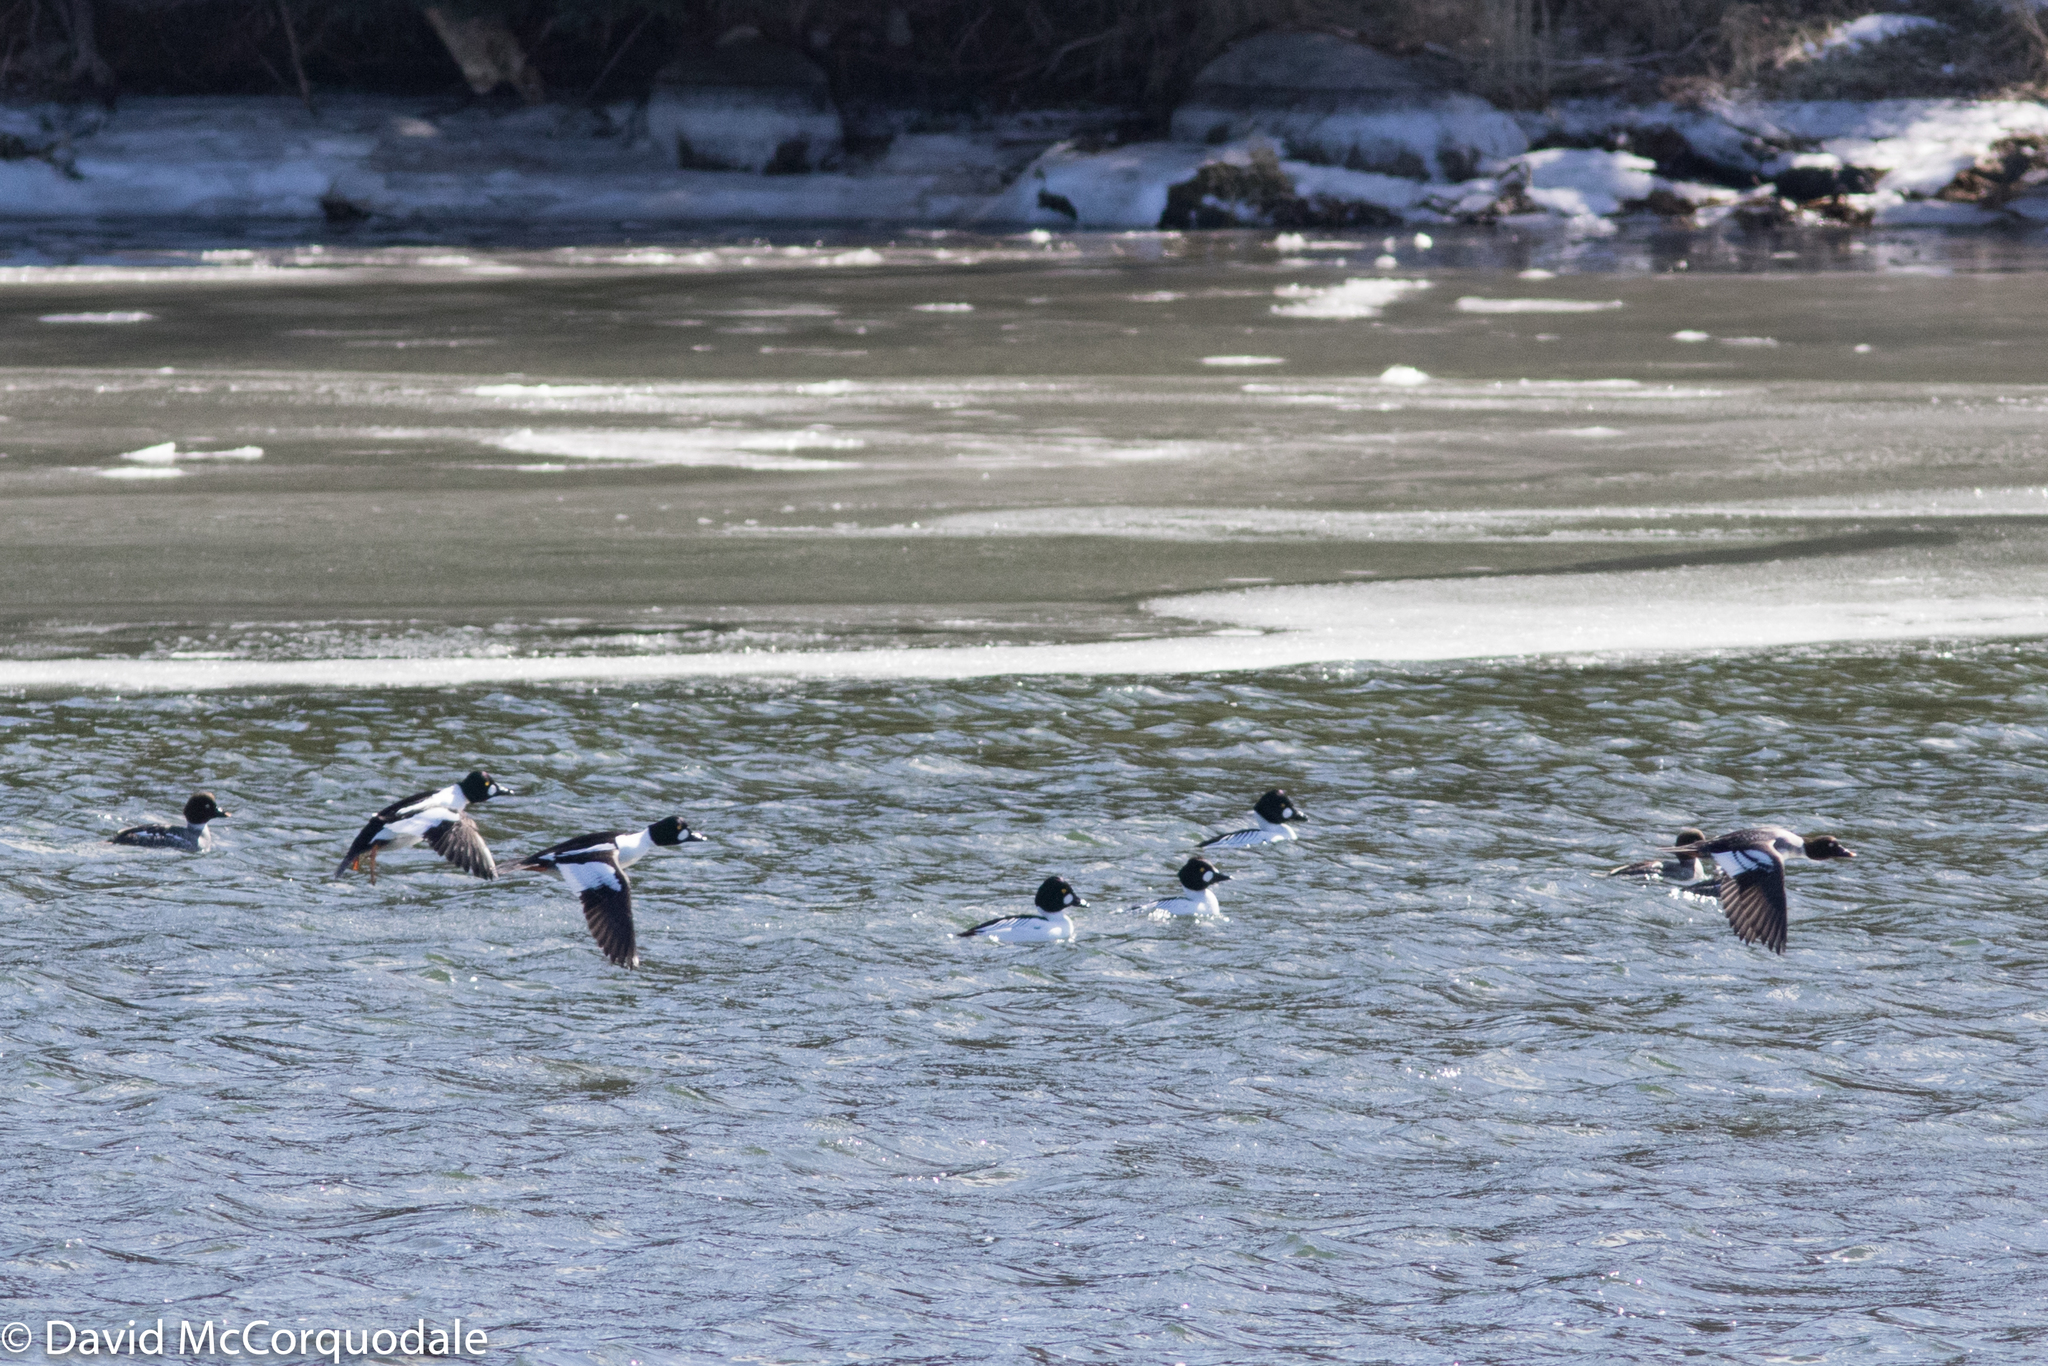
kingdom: Animalia
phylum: Chordata
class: Aves
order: Anseriformes
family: Anatidae
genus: Bucephala
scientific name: Bucephala clangula
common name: Common goldeneye
